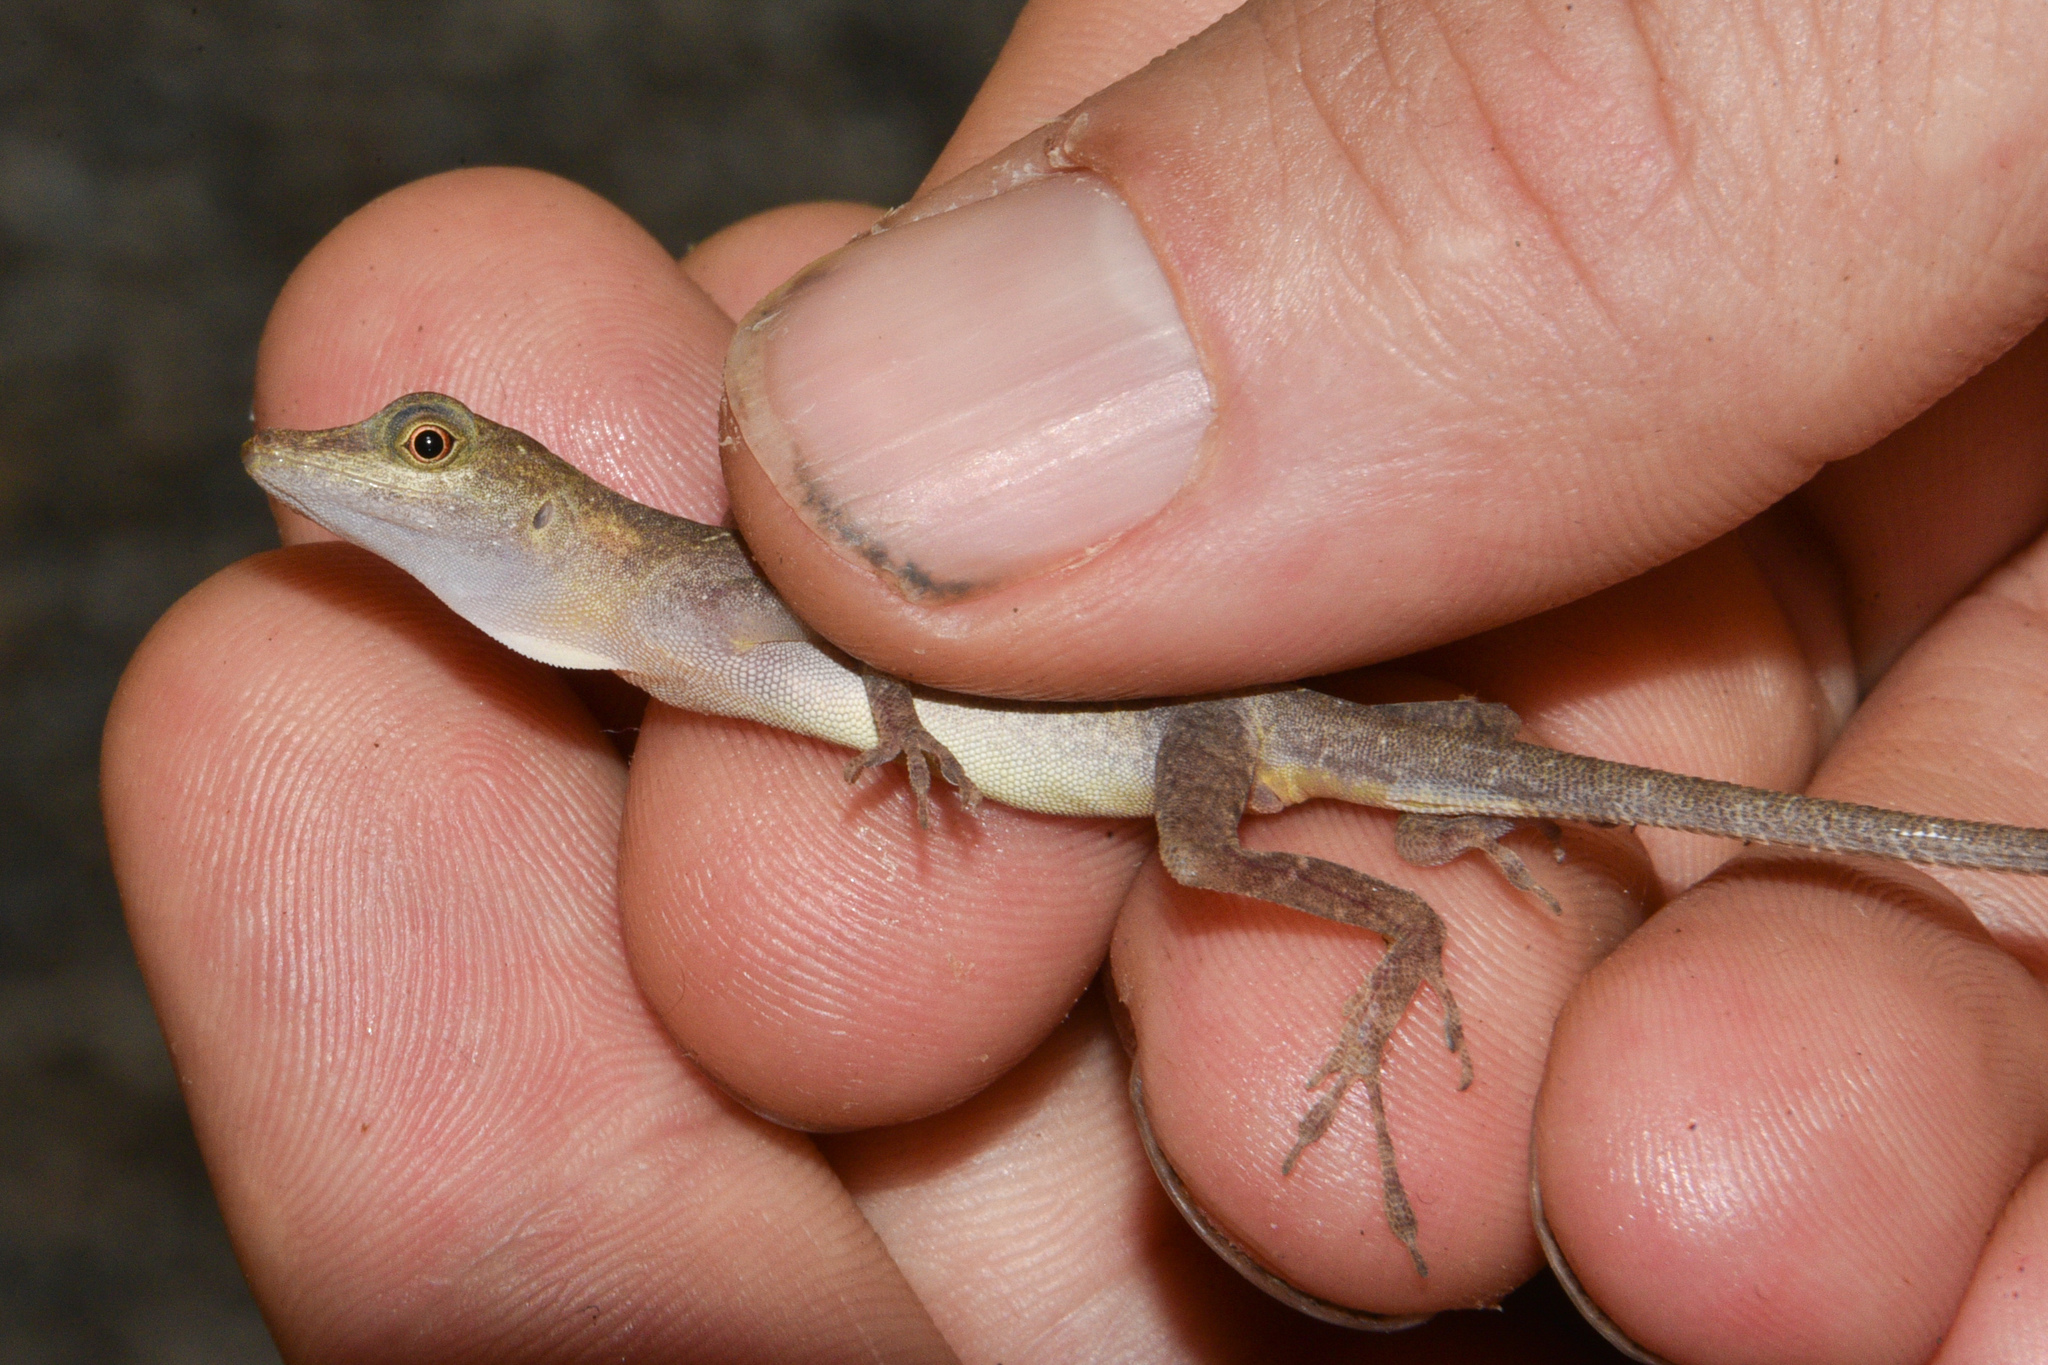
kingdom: Animalia
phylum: Chordata
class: Squamata
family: Dactyloidae
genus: Anolis
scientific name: Anolis limifrons
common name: Border anole
